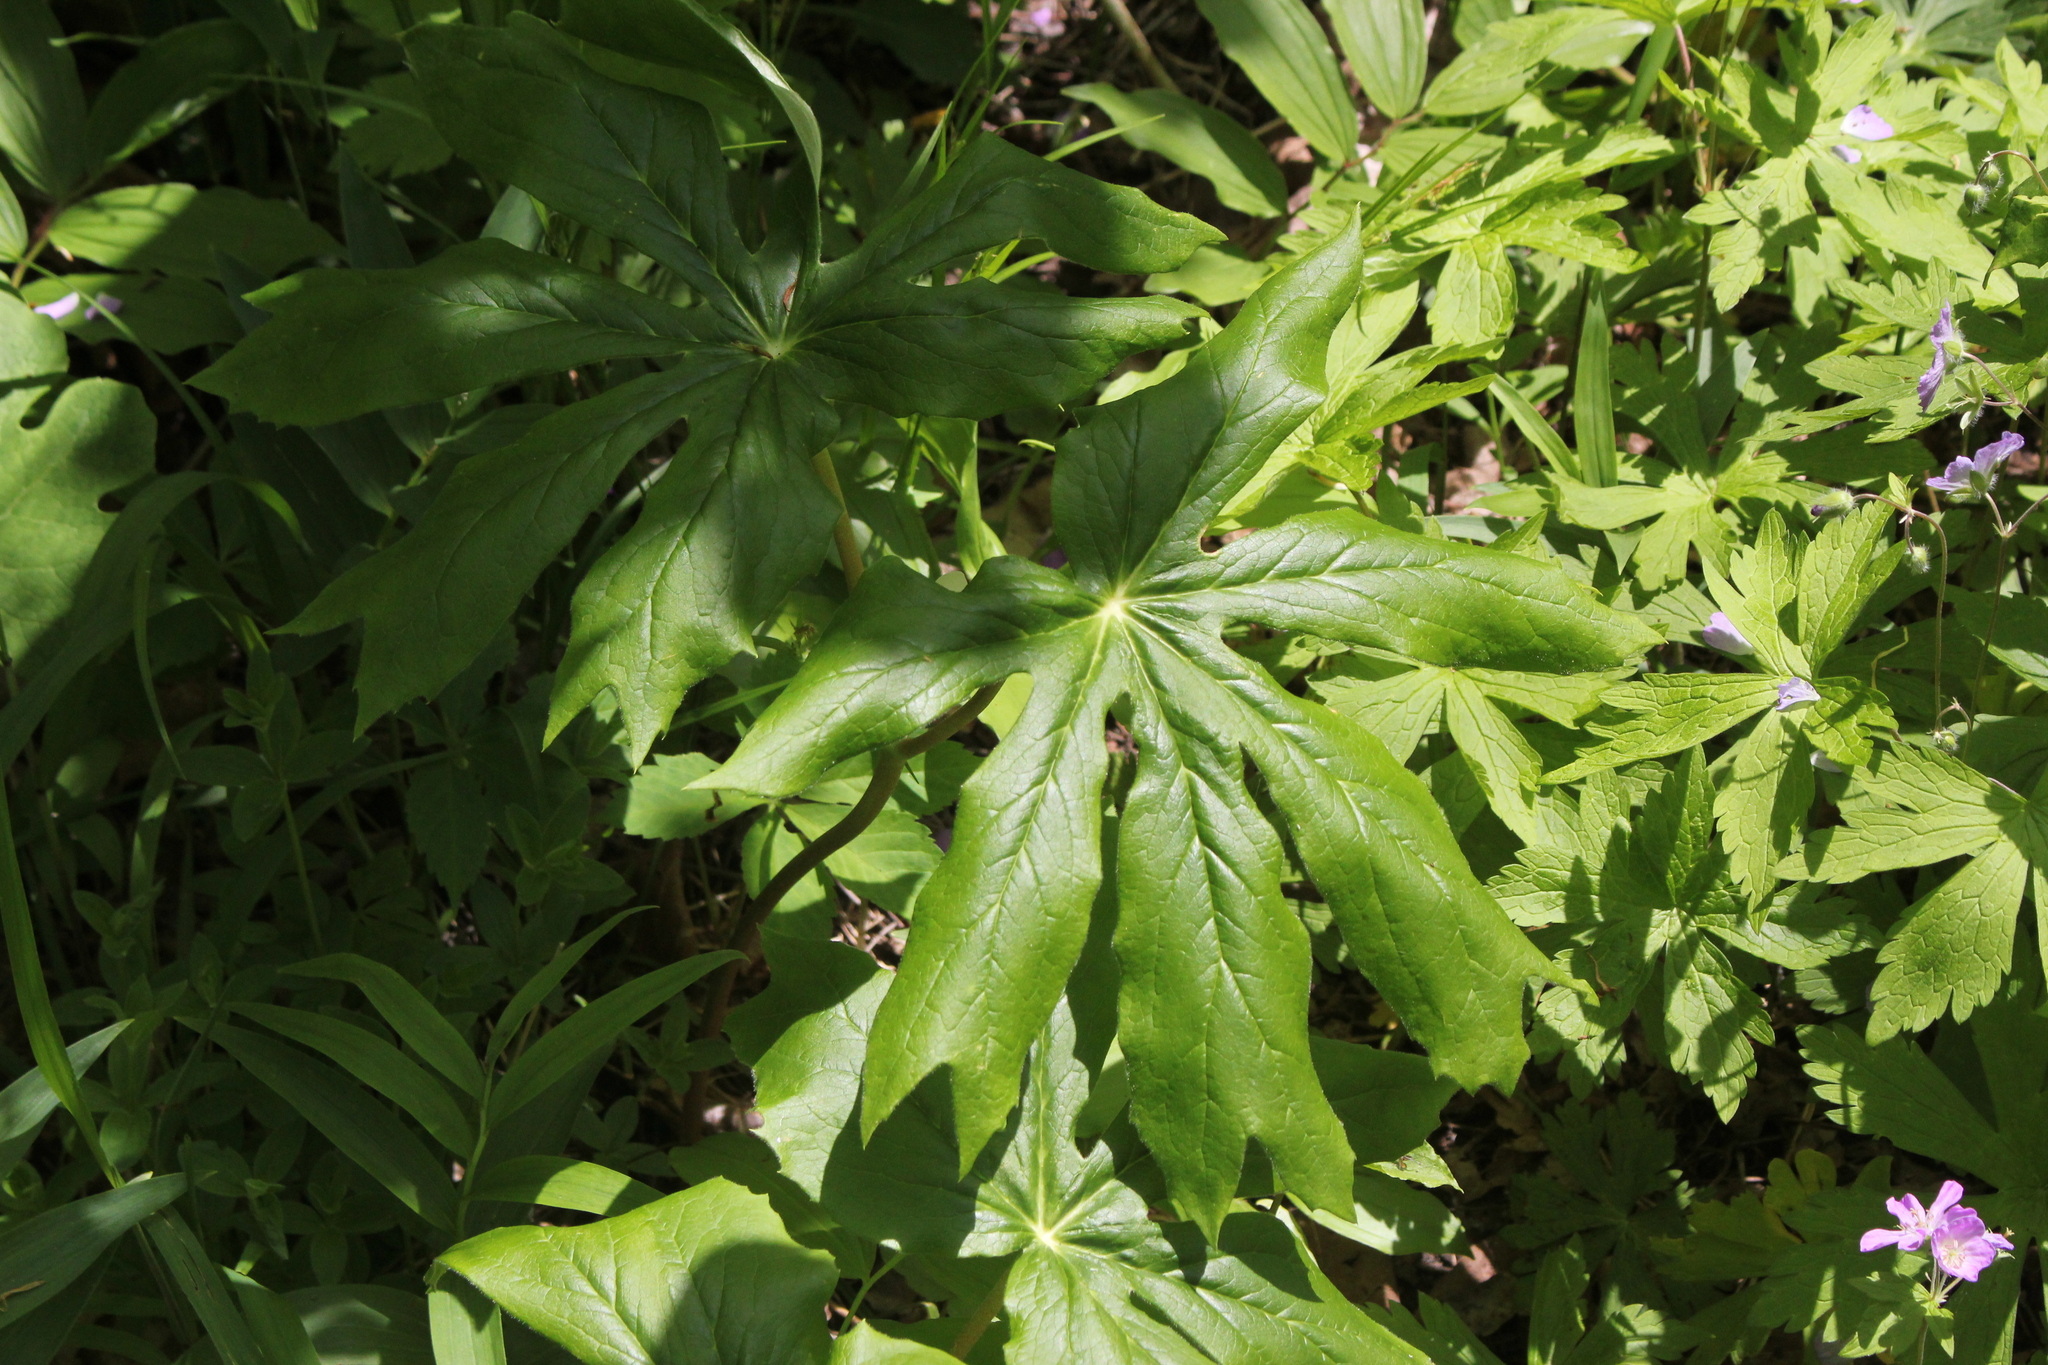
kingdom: Plantae
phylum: Tracheophyta
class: Magnoliopsida
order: Ranunculales
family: Berberidaceae
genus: Podophyllum
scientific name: Podophyllum peltatum
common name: Wild mandrake
